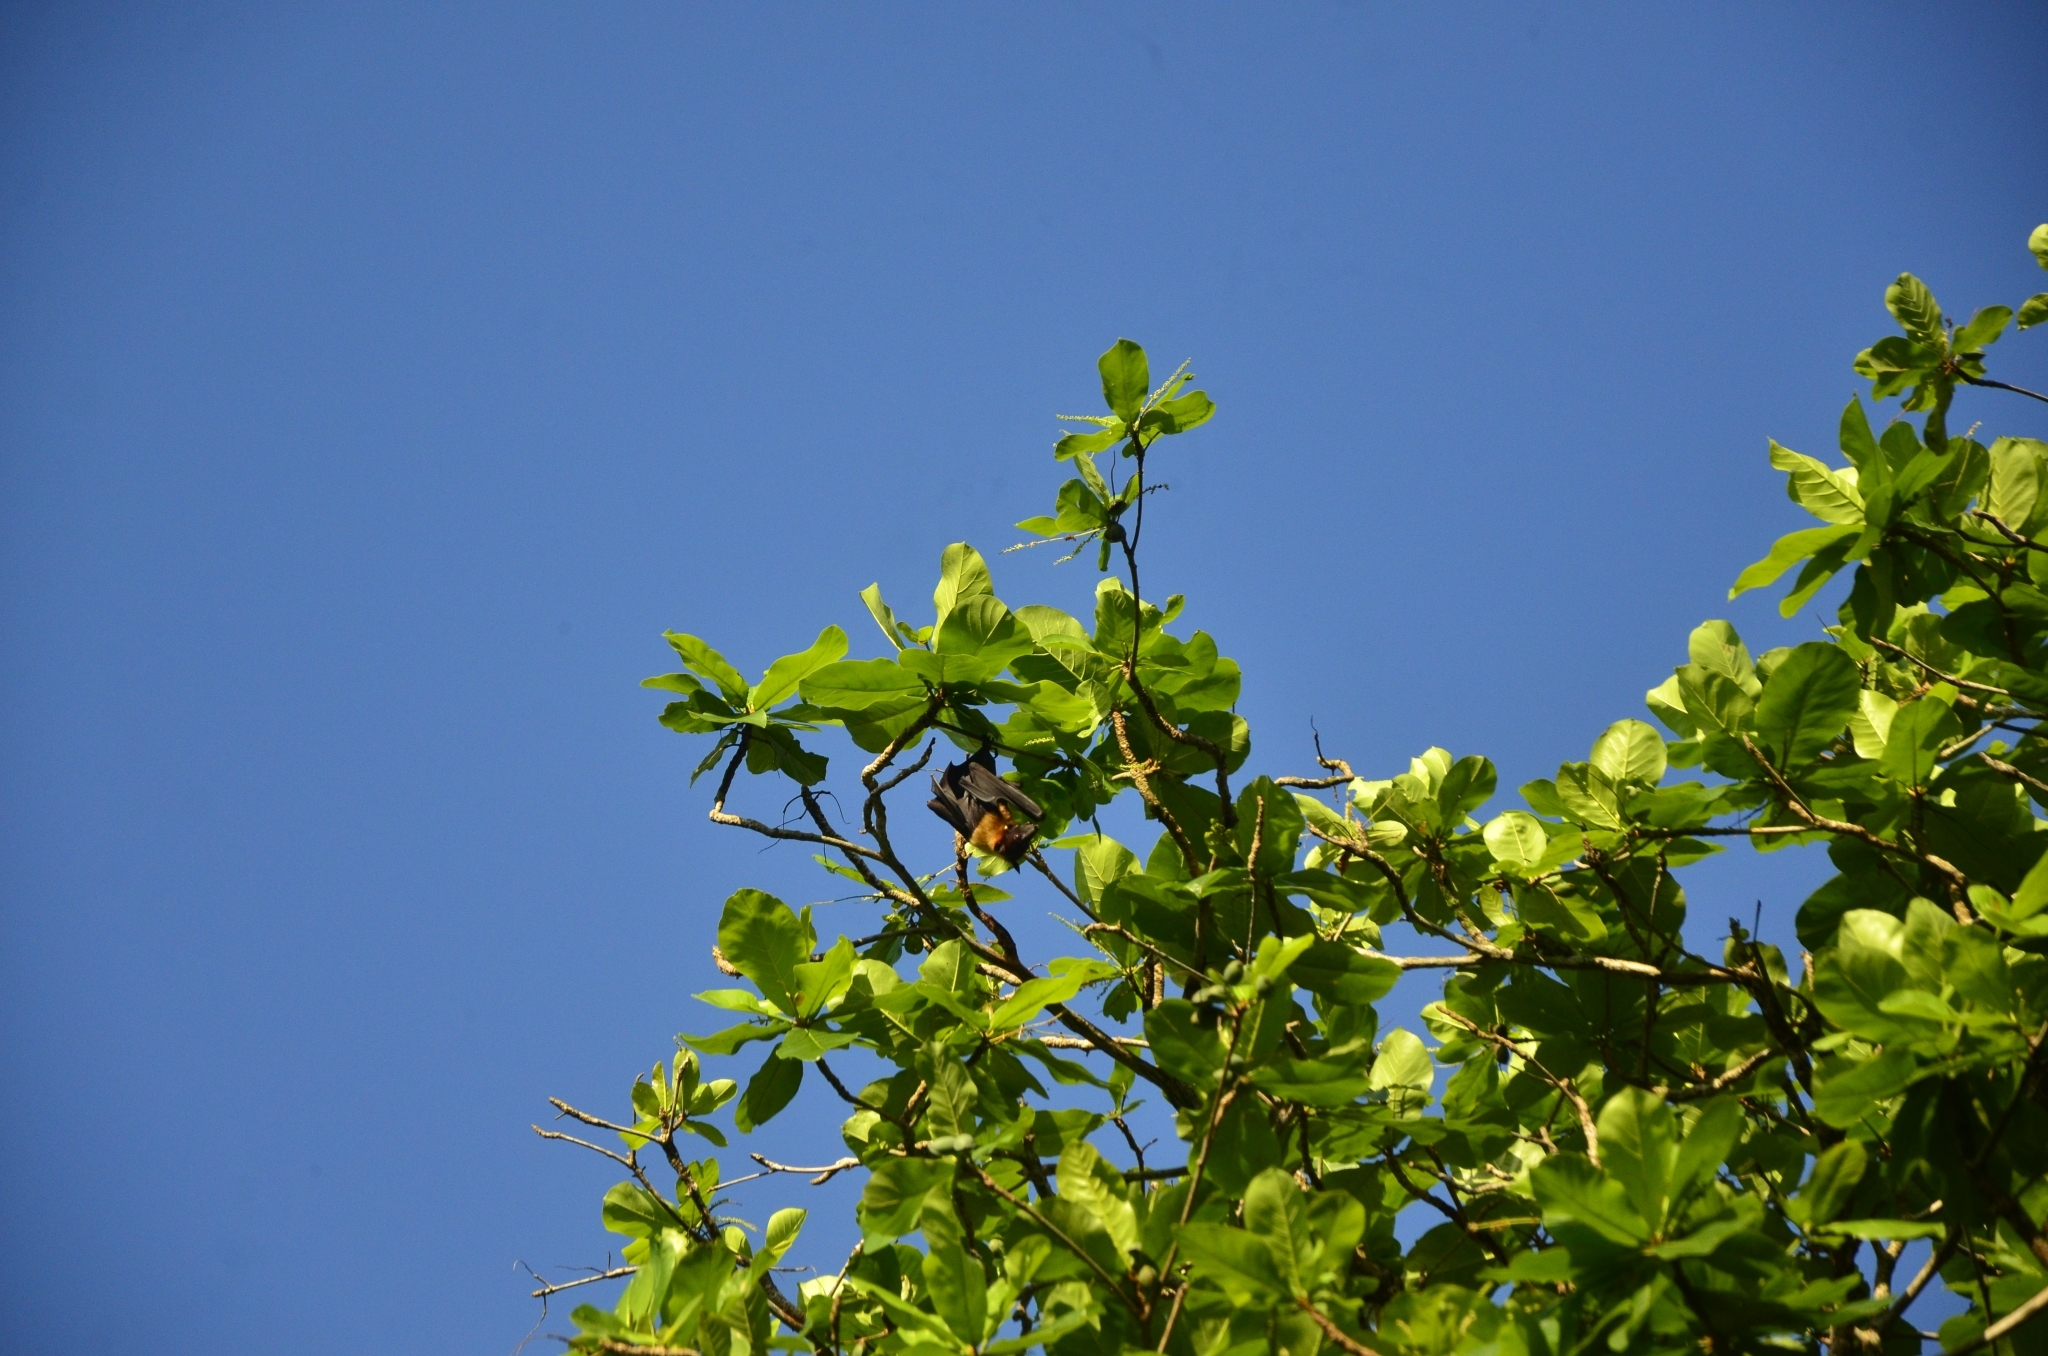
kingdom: Animalia
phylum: Chordata
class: Mammalia
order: Chiroptera
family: Pteropodidae
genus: Pteropus
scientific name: Pteropus vampyrus
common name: Large flying fox
